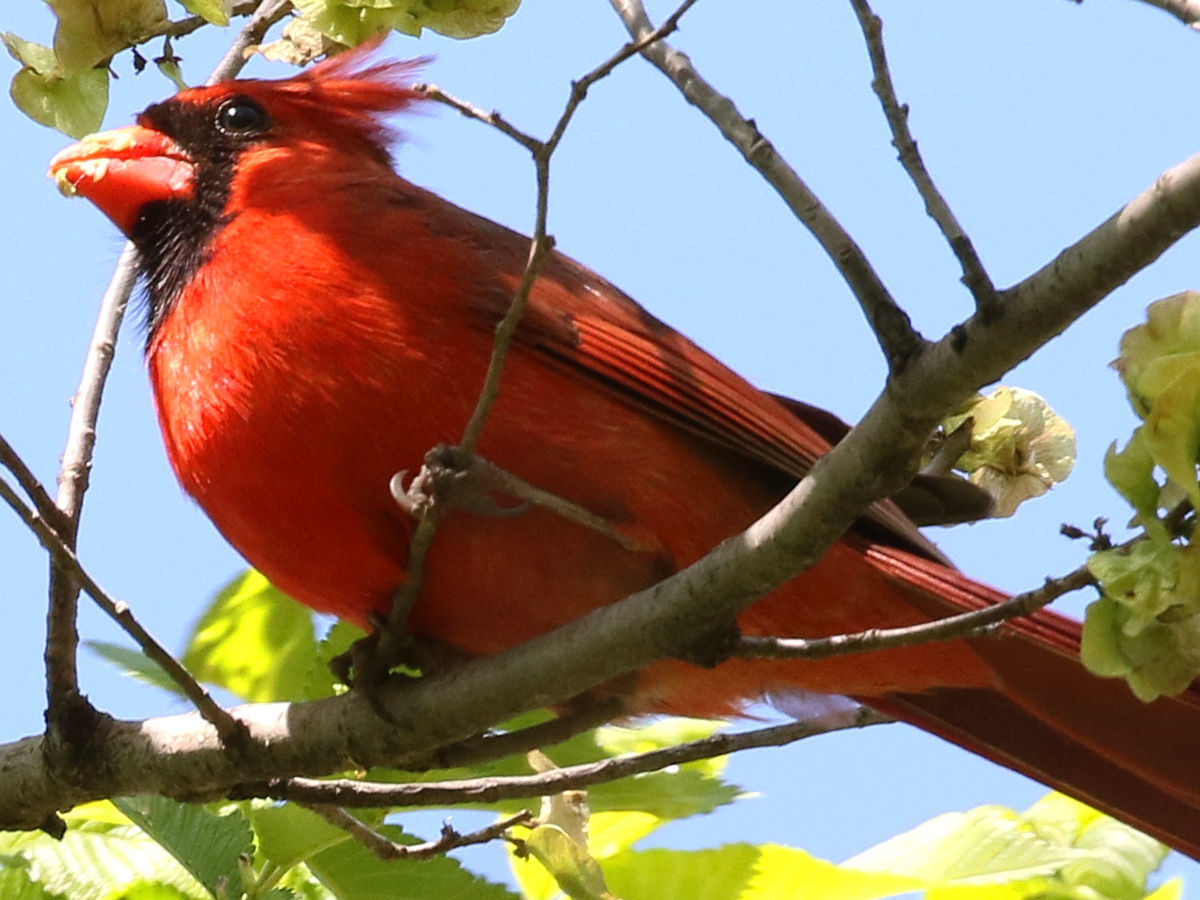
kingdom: Animalia
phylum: Chordata
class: Aves
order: Passeriformes
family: Cardinalidae
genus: Cardinalis
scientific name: Cardinalis cardinalis
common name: Northern cardinal
